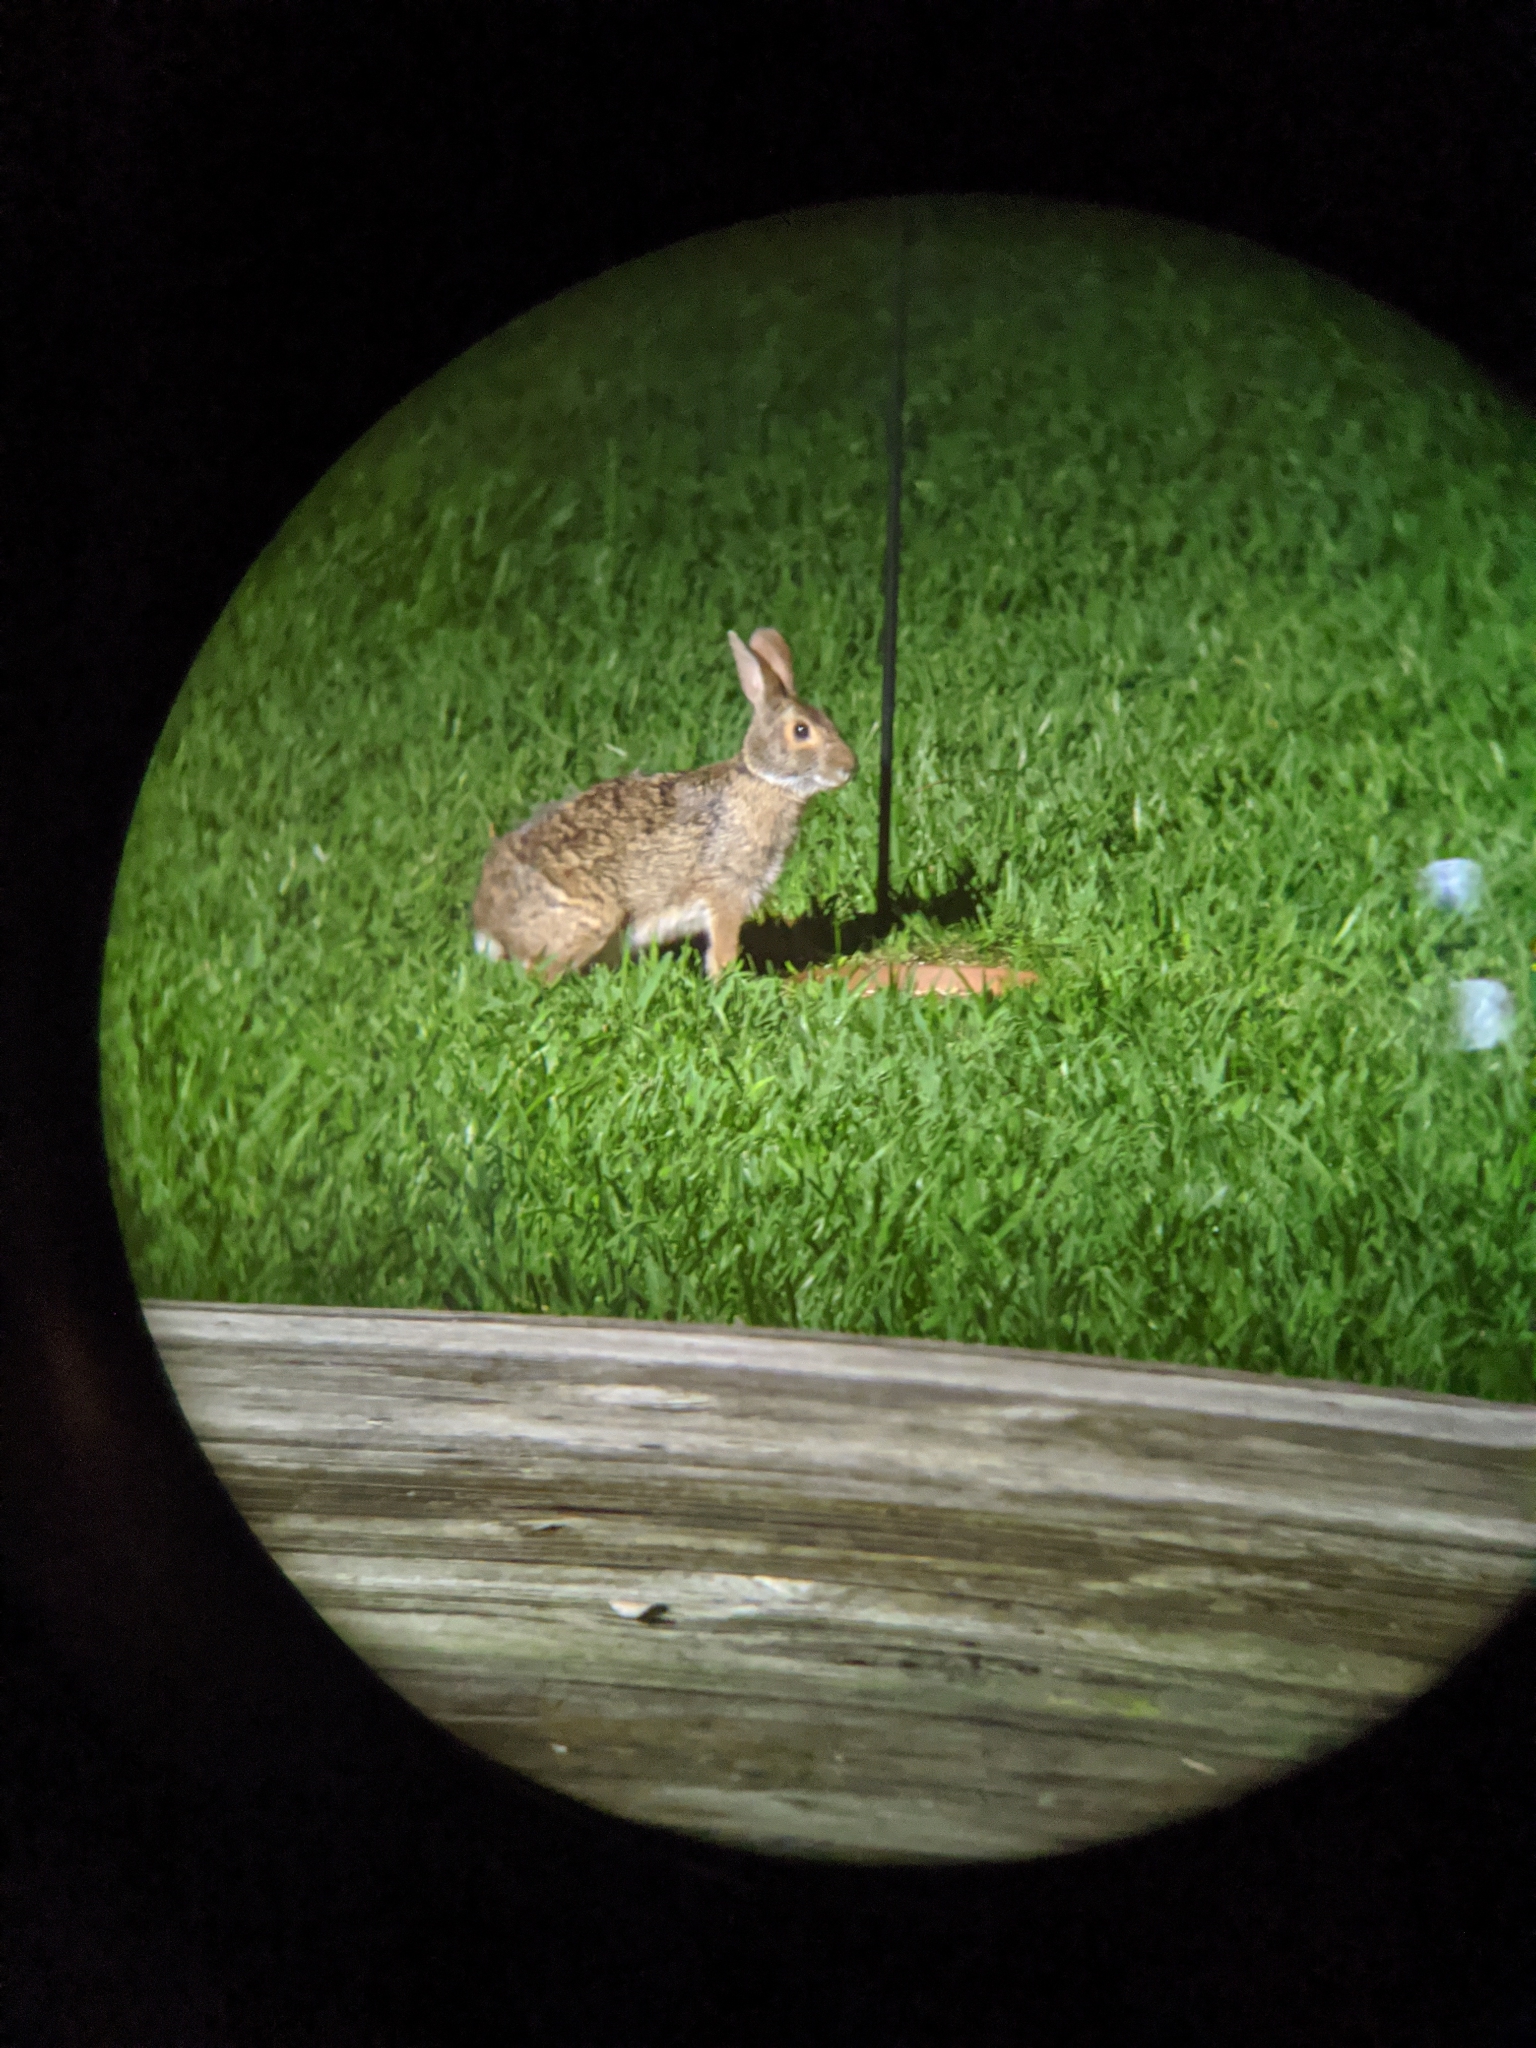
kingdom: Animalia
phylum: Chordata
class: Mammalia
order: Lagomorpha
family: Leporidae
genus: Sylvilagus
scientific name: Sylvilagus aquaticus
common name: Swamp rabbit
